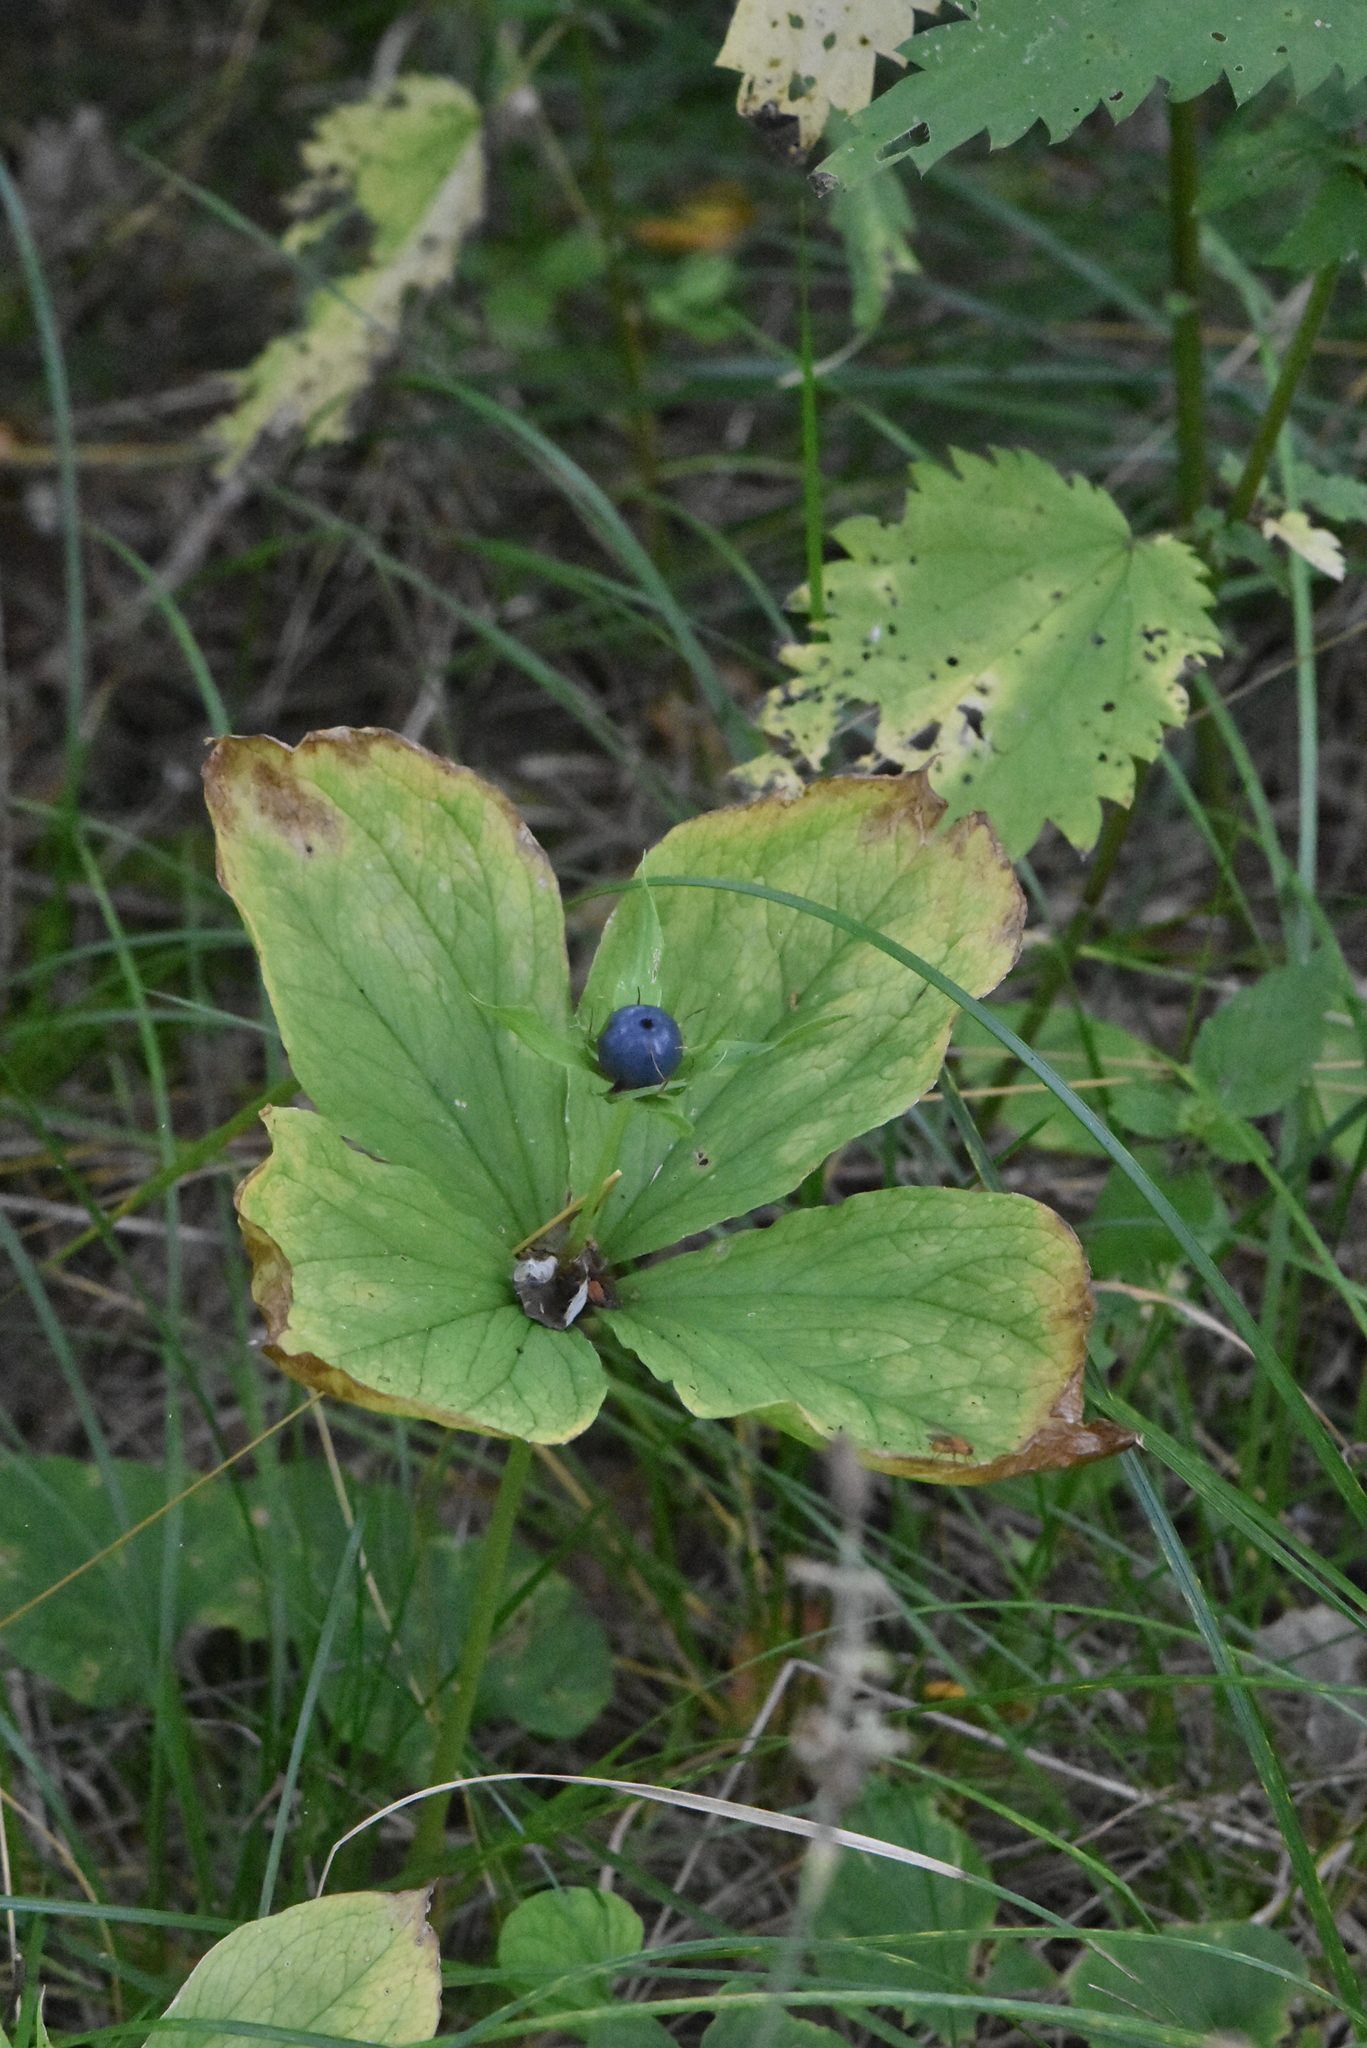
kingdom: Plantae
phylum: Tracheophyta
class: Liliopsida
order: Liliales
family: Melanthiaceae
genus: Paris
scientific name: Paris quadrifolia
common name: Herb-paris
